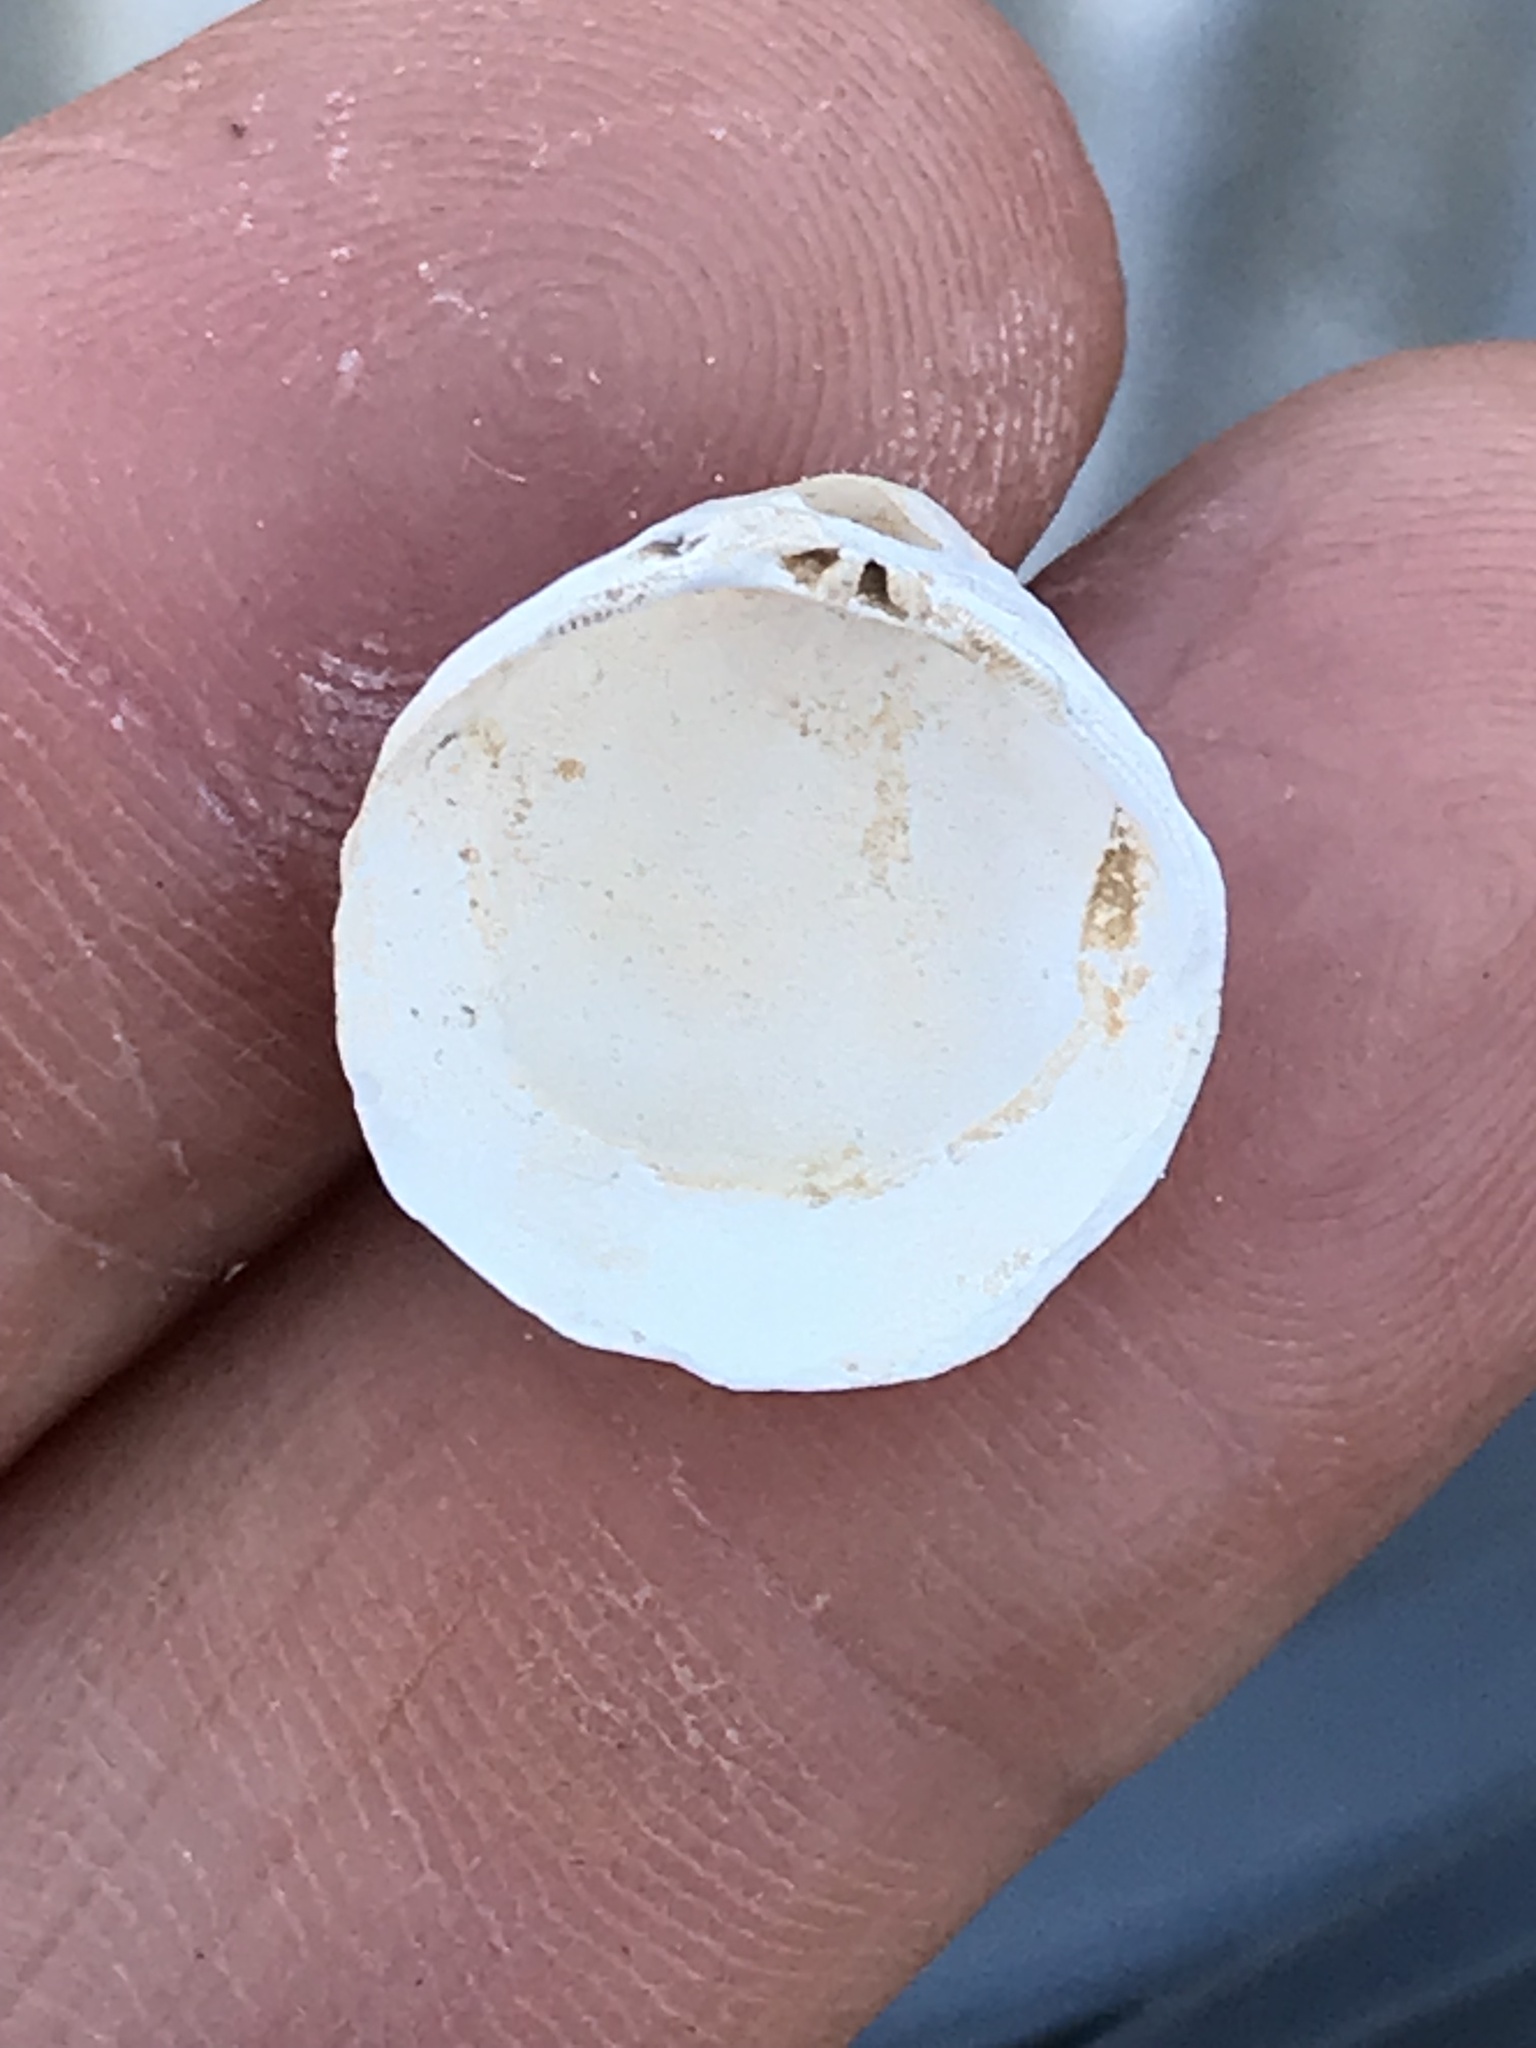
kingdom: Animalia
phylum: Mollusca
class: Bivalvia
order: Venerida
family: Cyrenidae
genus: Corbicula
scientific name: Corbicula fluminea
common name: Asian clam
